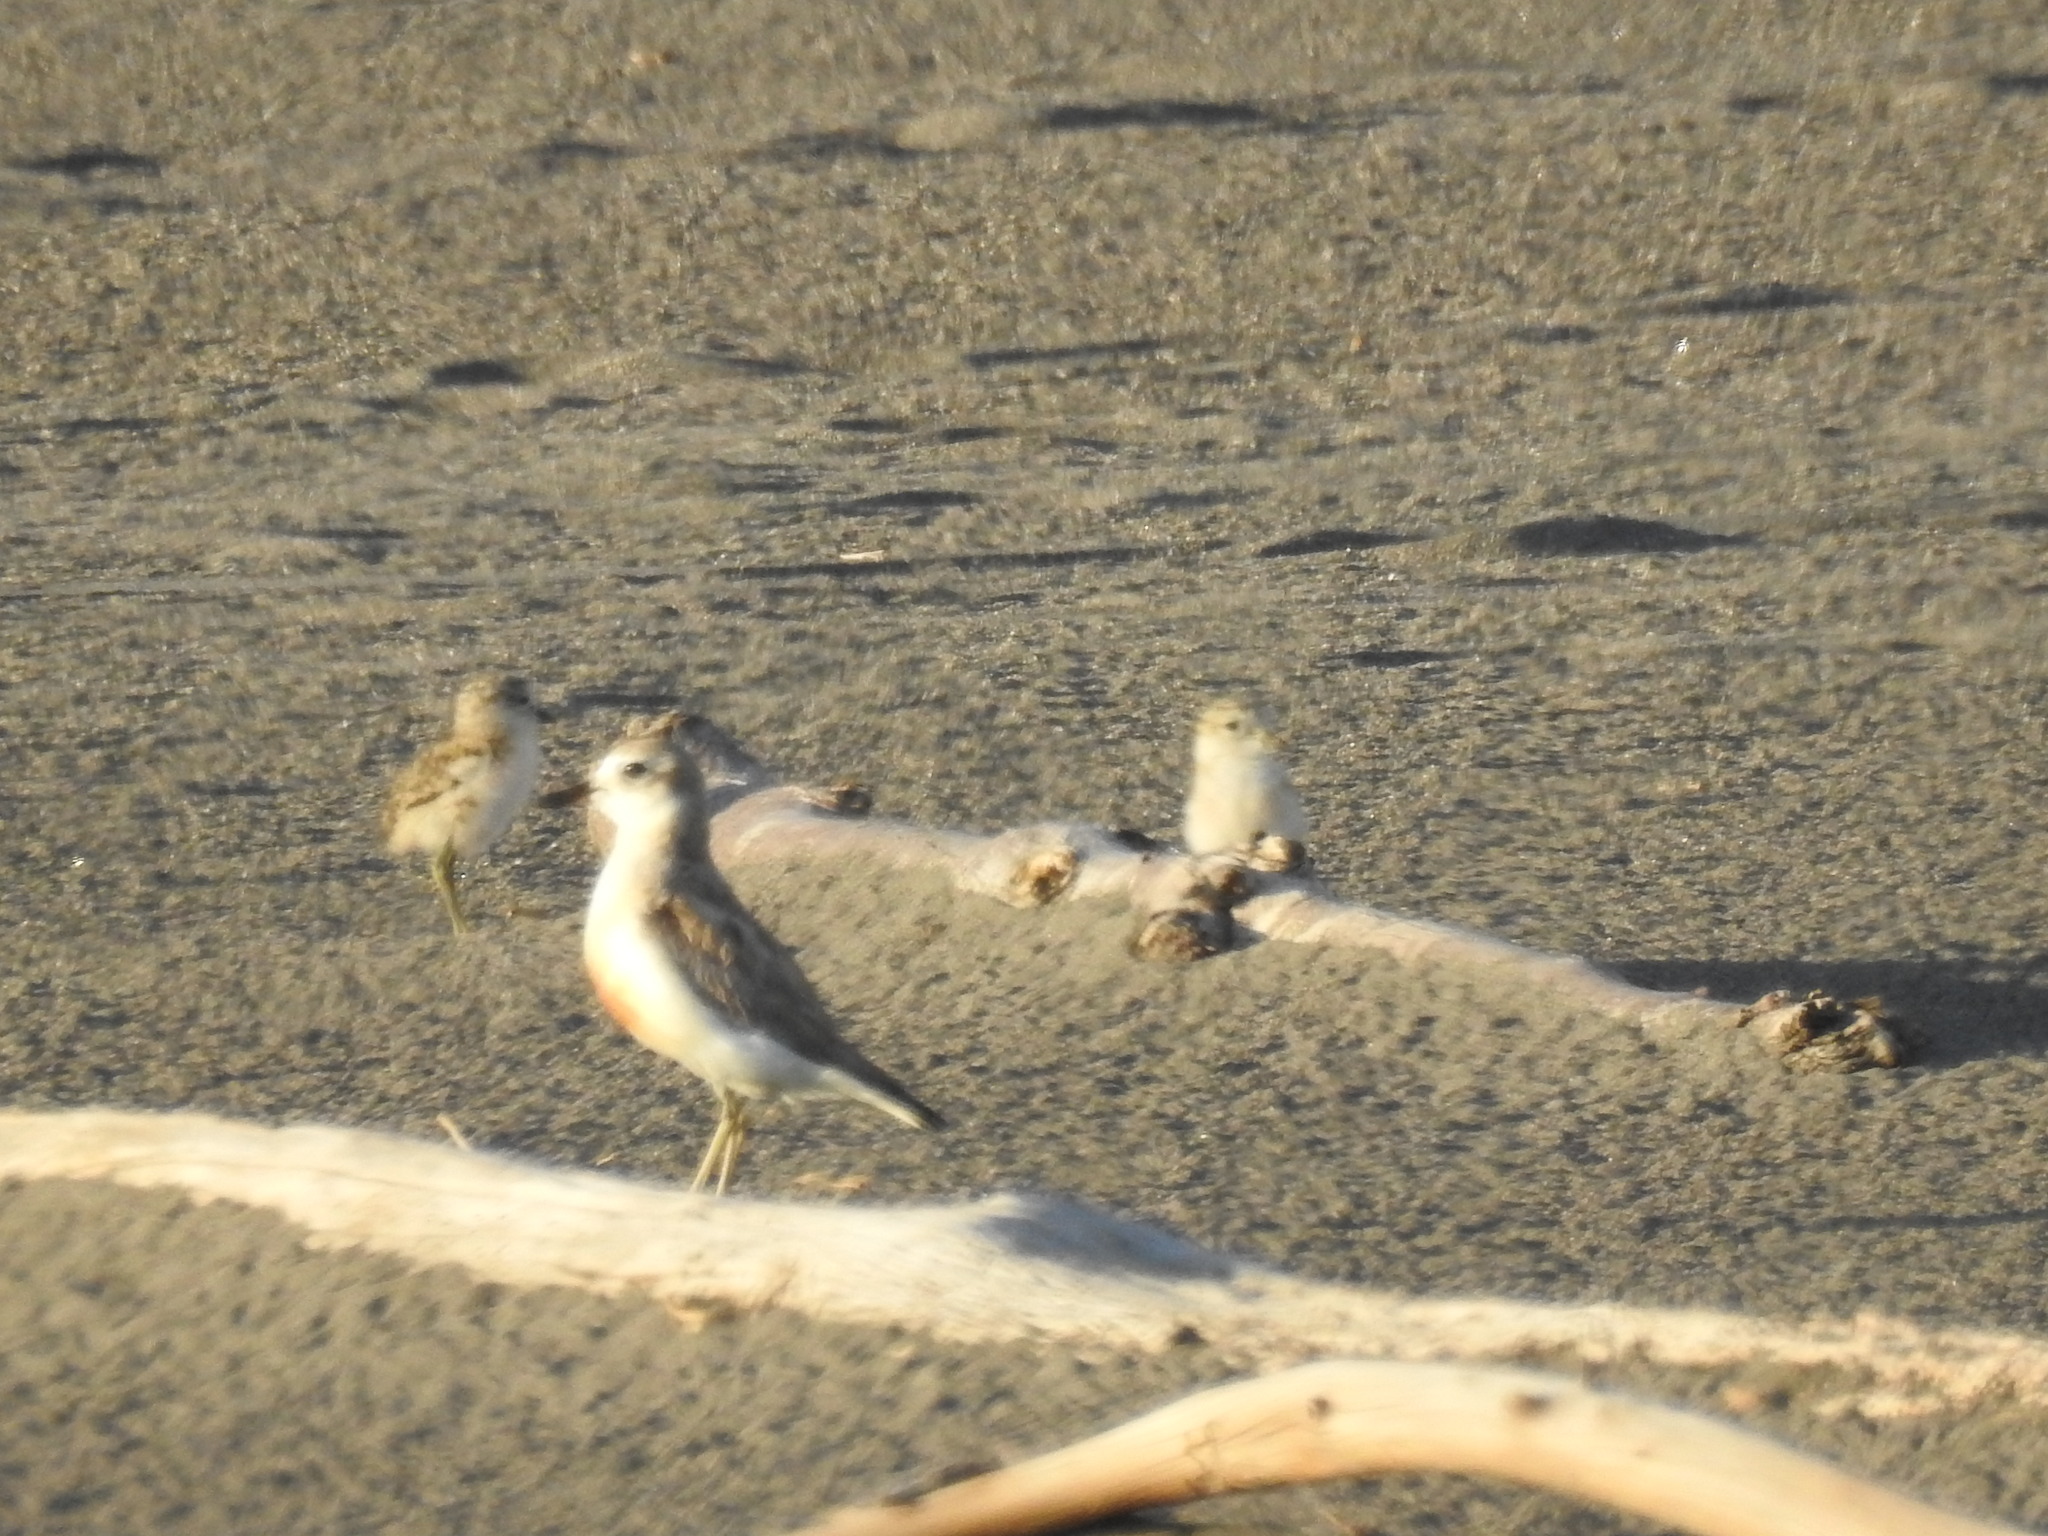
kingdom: Animalia
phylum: Chordata
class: Aves
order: Charadriiformes
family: Charadriidae
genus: Anarhynchus
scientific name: Anarhynchus
